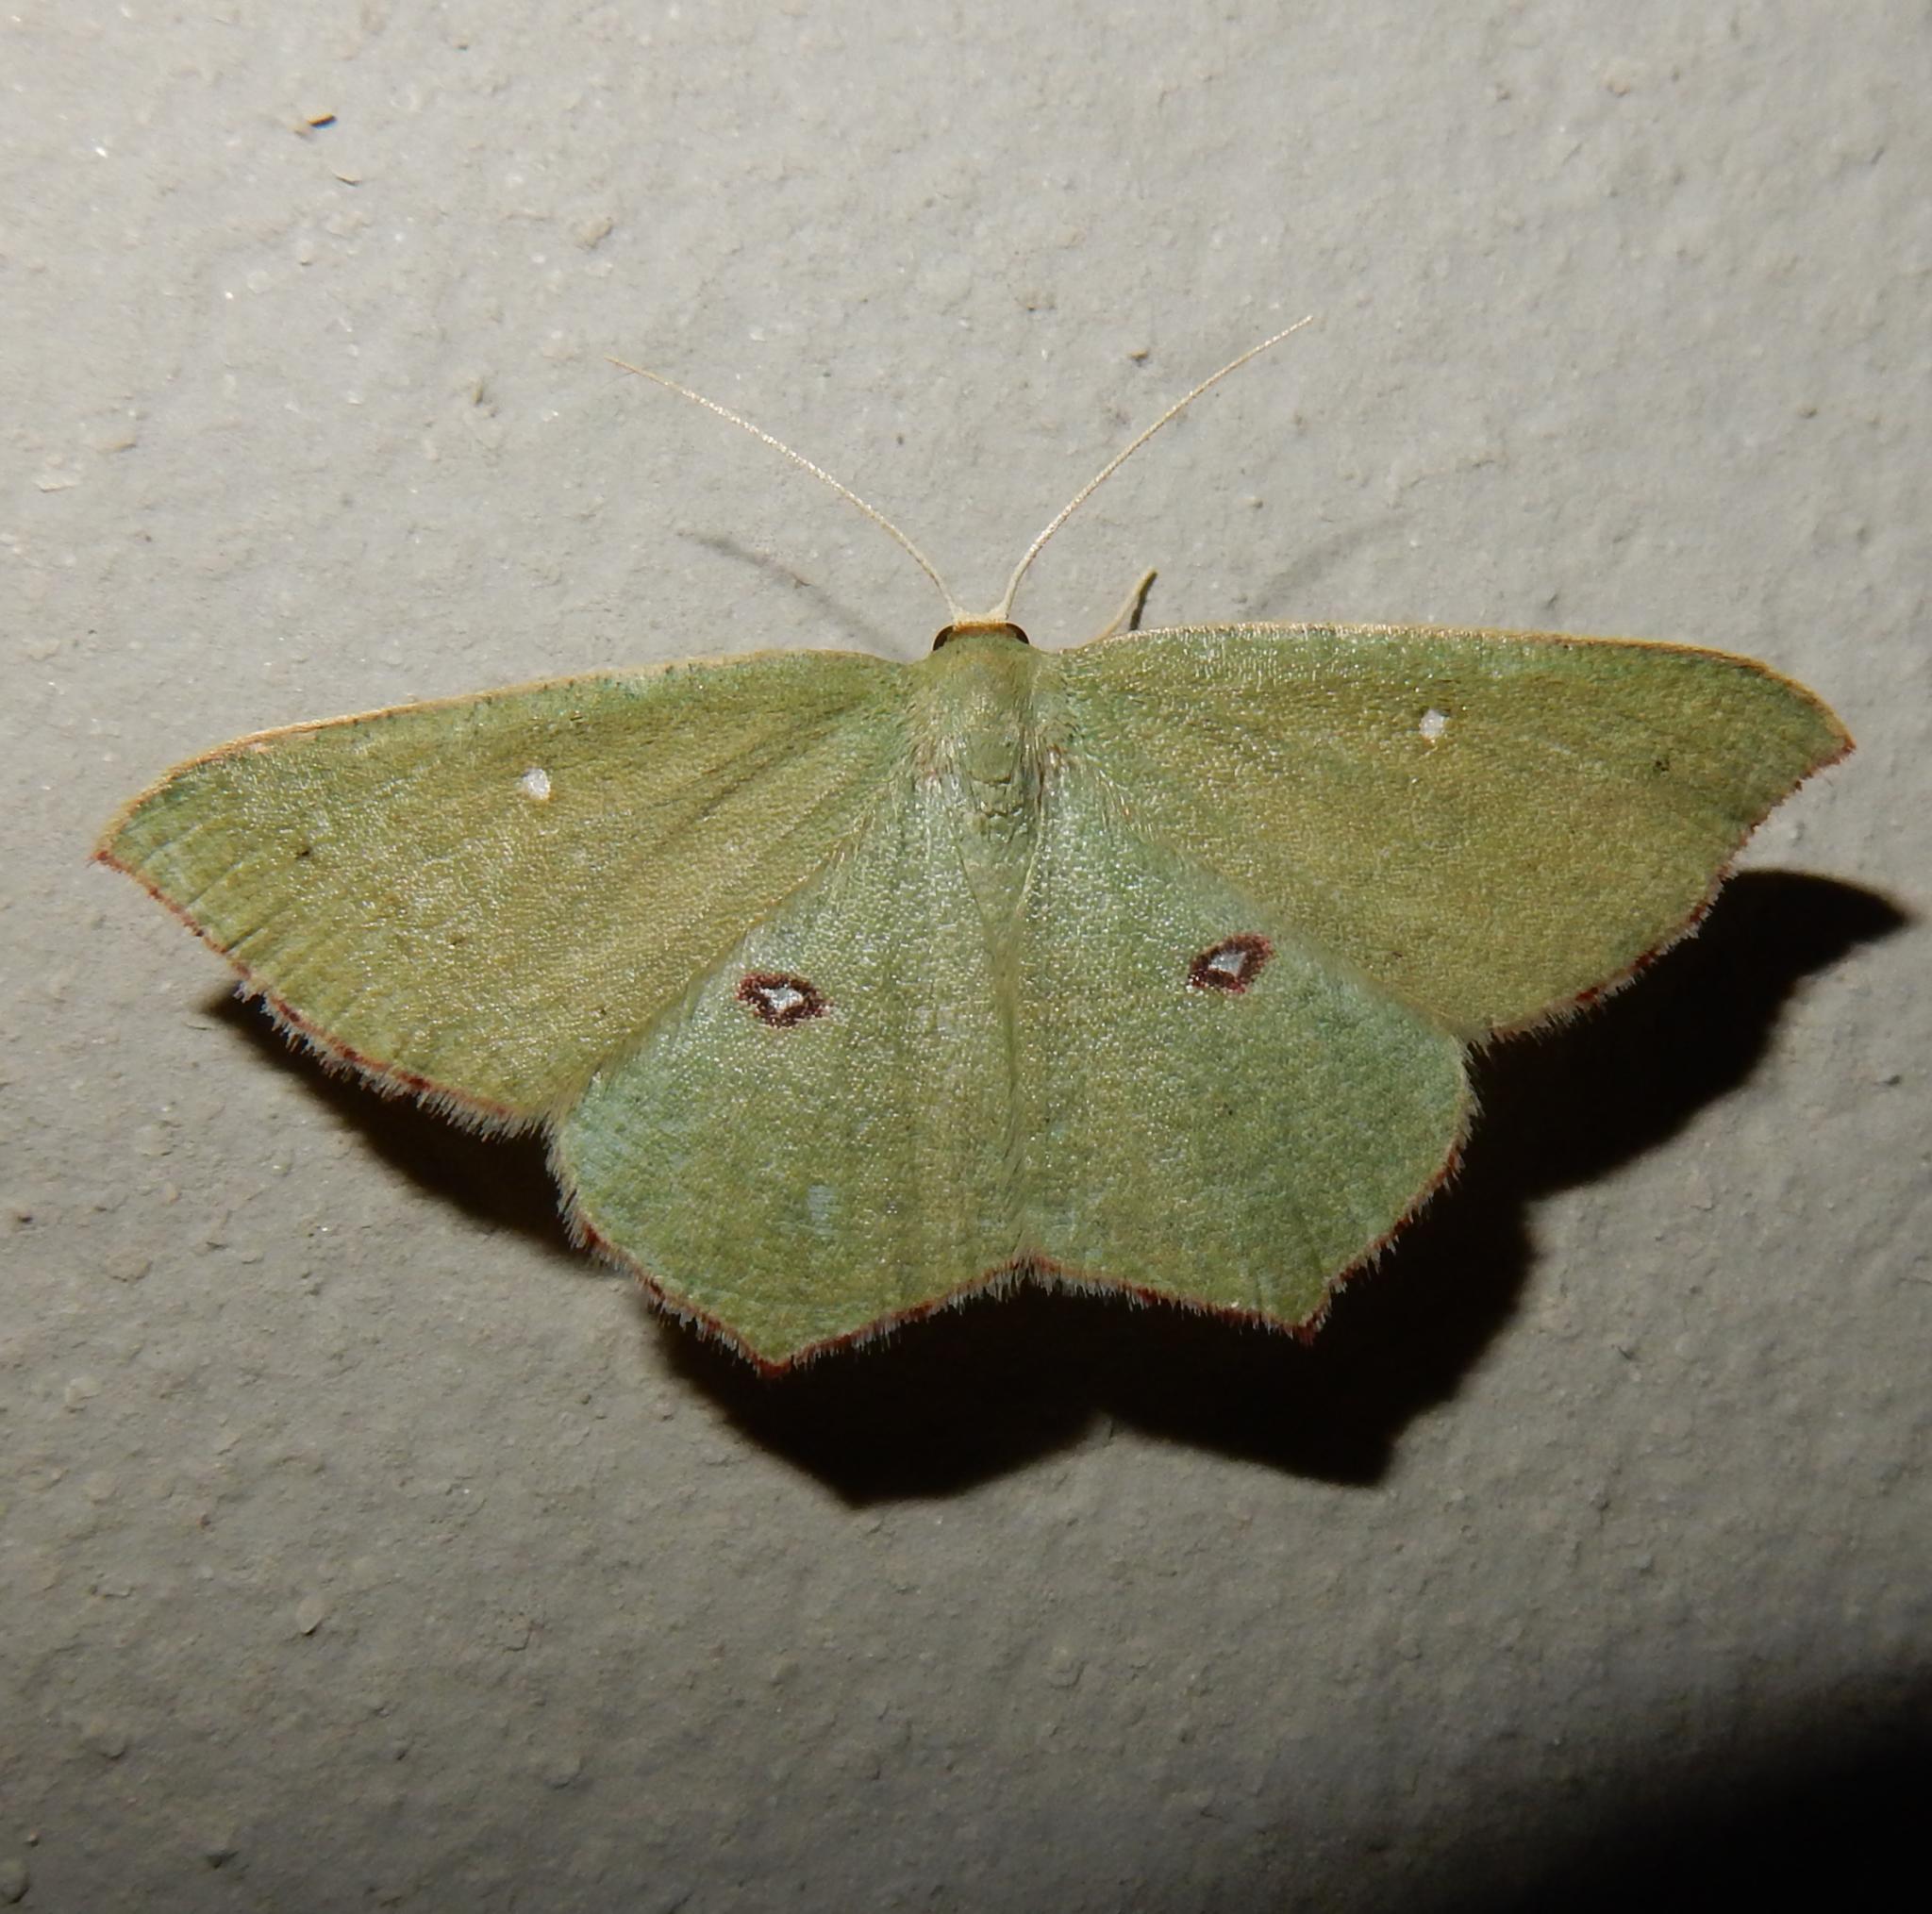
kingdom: Animalia
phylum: Arthropoda
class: Insecta
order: Lepidoptera
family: Geometridae
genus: Traminda
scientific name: Traminda ocellata
